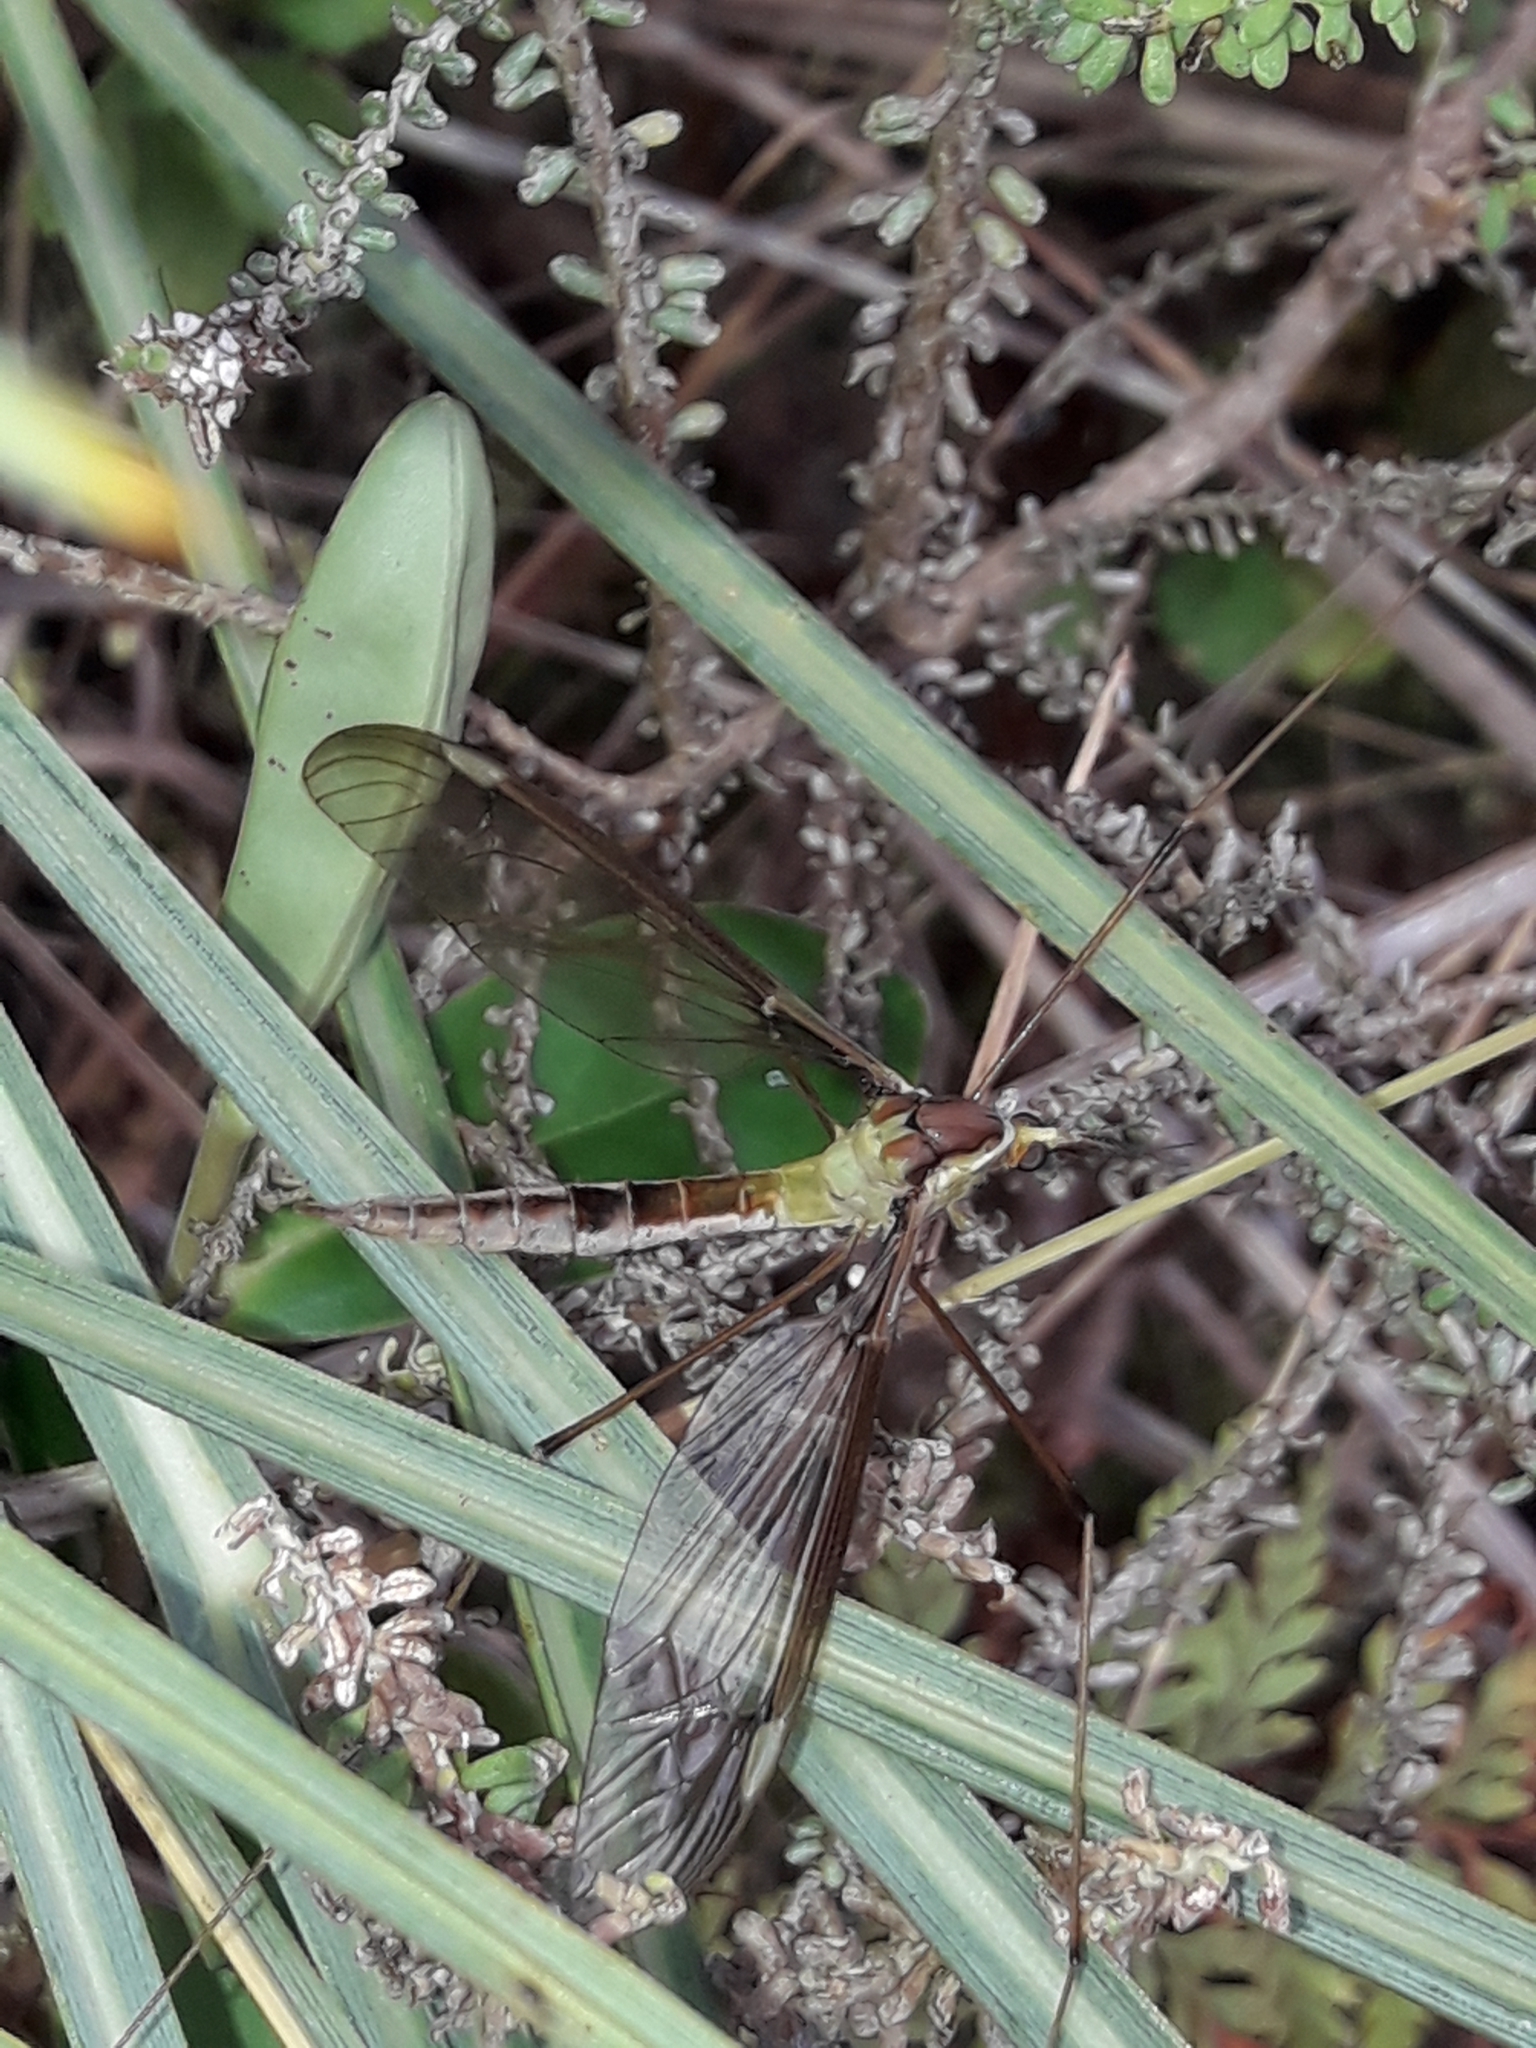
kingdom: Animalia
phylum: Arthropoda
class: Insecta
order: Diptera
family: Tipulidae
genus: Leptotarsus
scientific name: Leptotarsus albistigma
